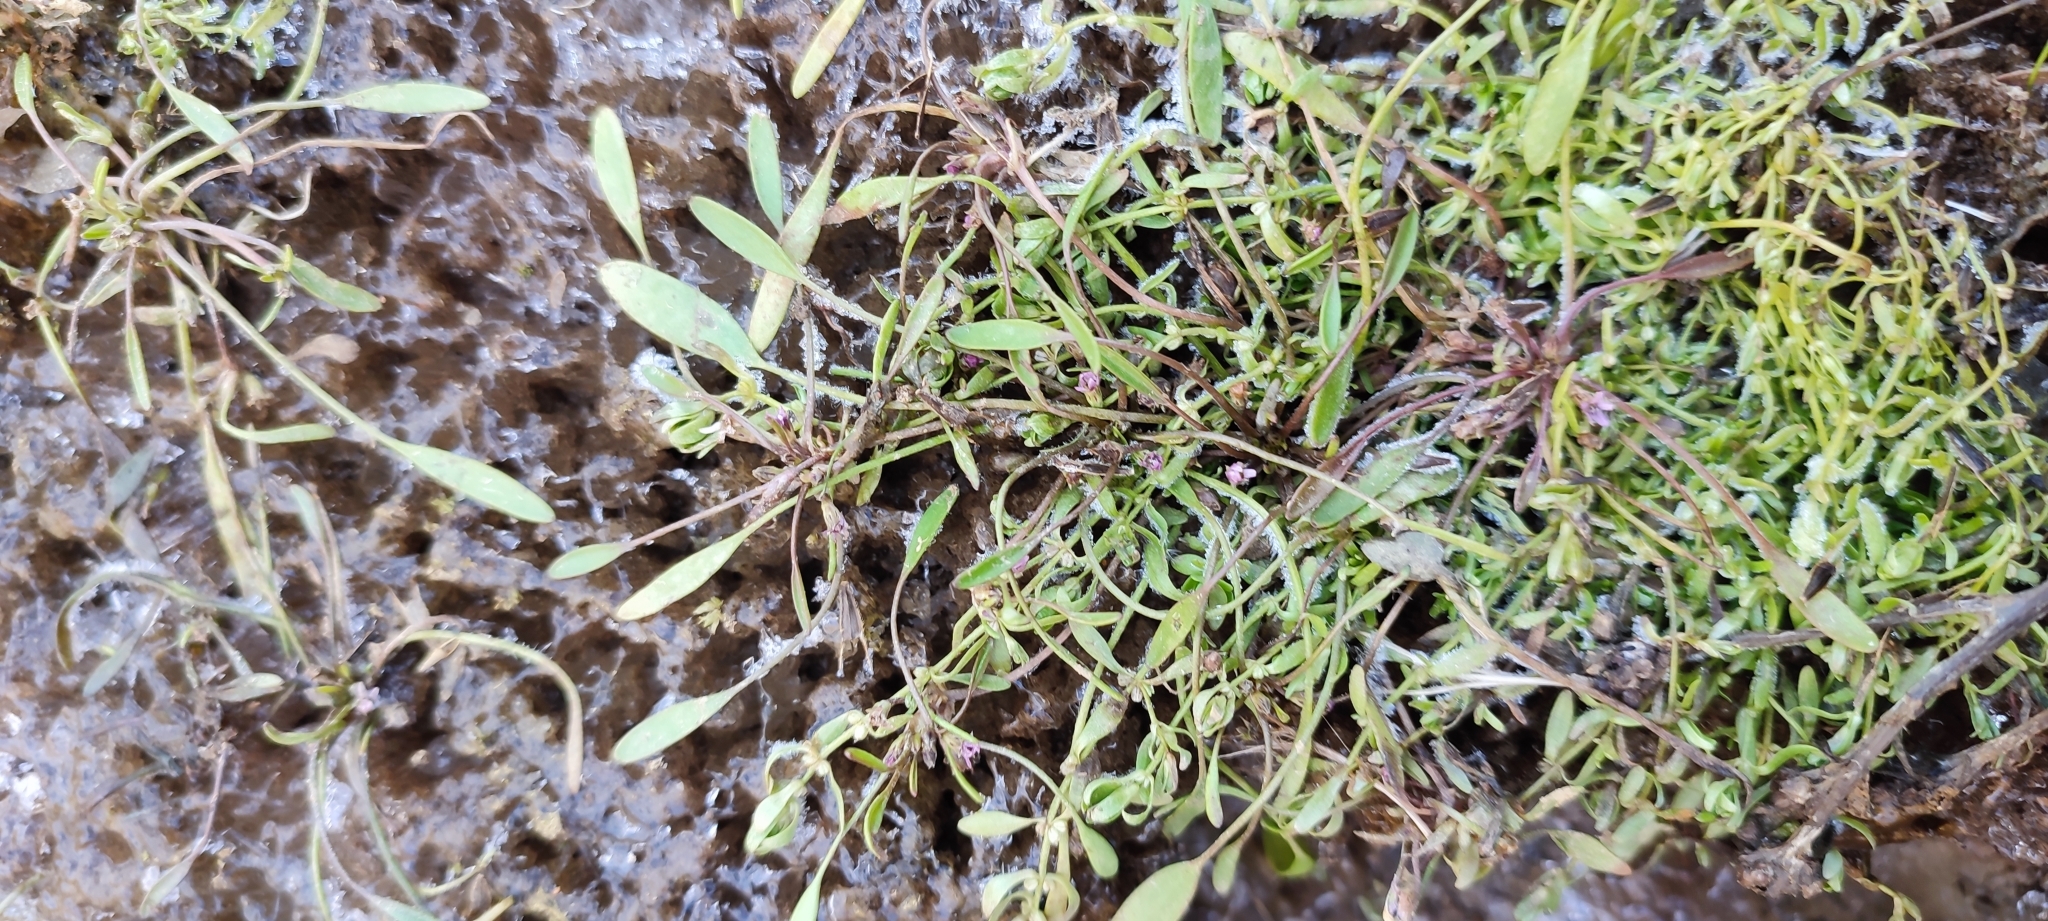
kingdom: Plantae
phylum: Tracheophyta
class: Magnoliopsida
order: Lamiales
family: Scrophulariaceae
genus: Limosella
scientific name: Limosella aquatica
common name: Mudwort
